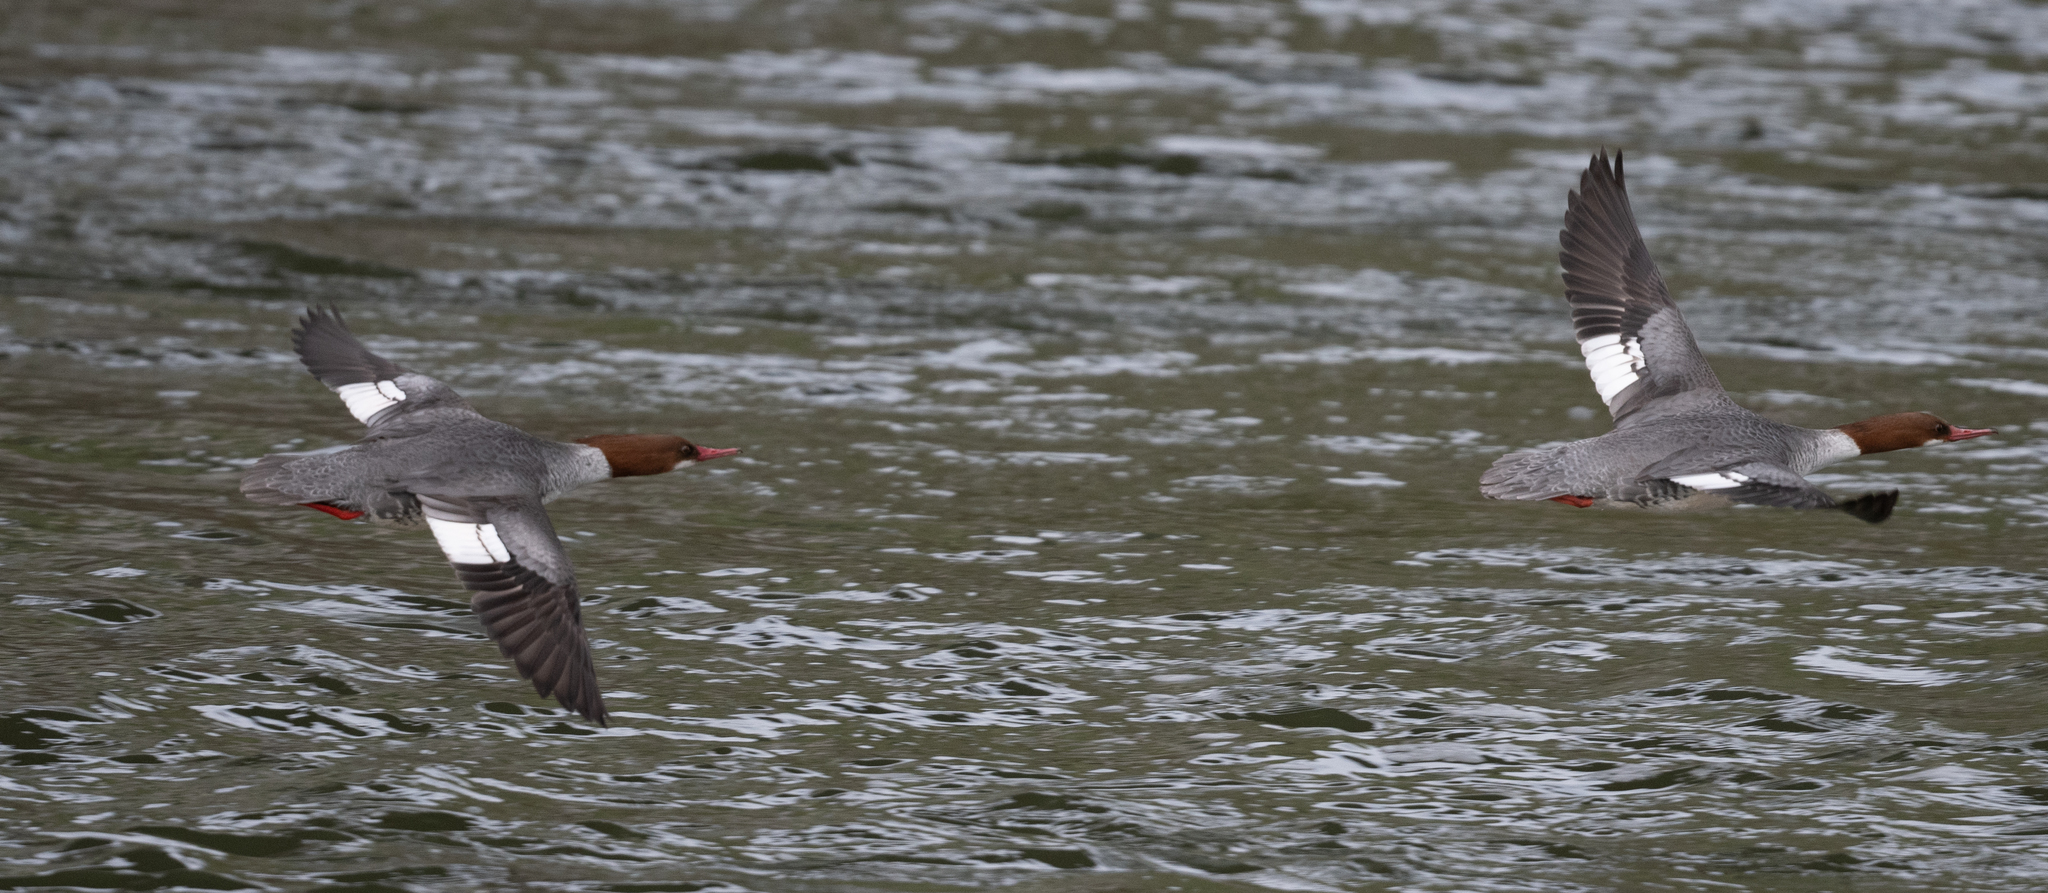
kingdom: Animalia
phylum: Chordata
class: Aves
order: Anseriformes
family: Anatidae
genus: Mergus
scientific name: Mergus merganser
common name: Common merganser
